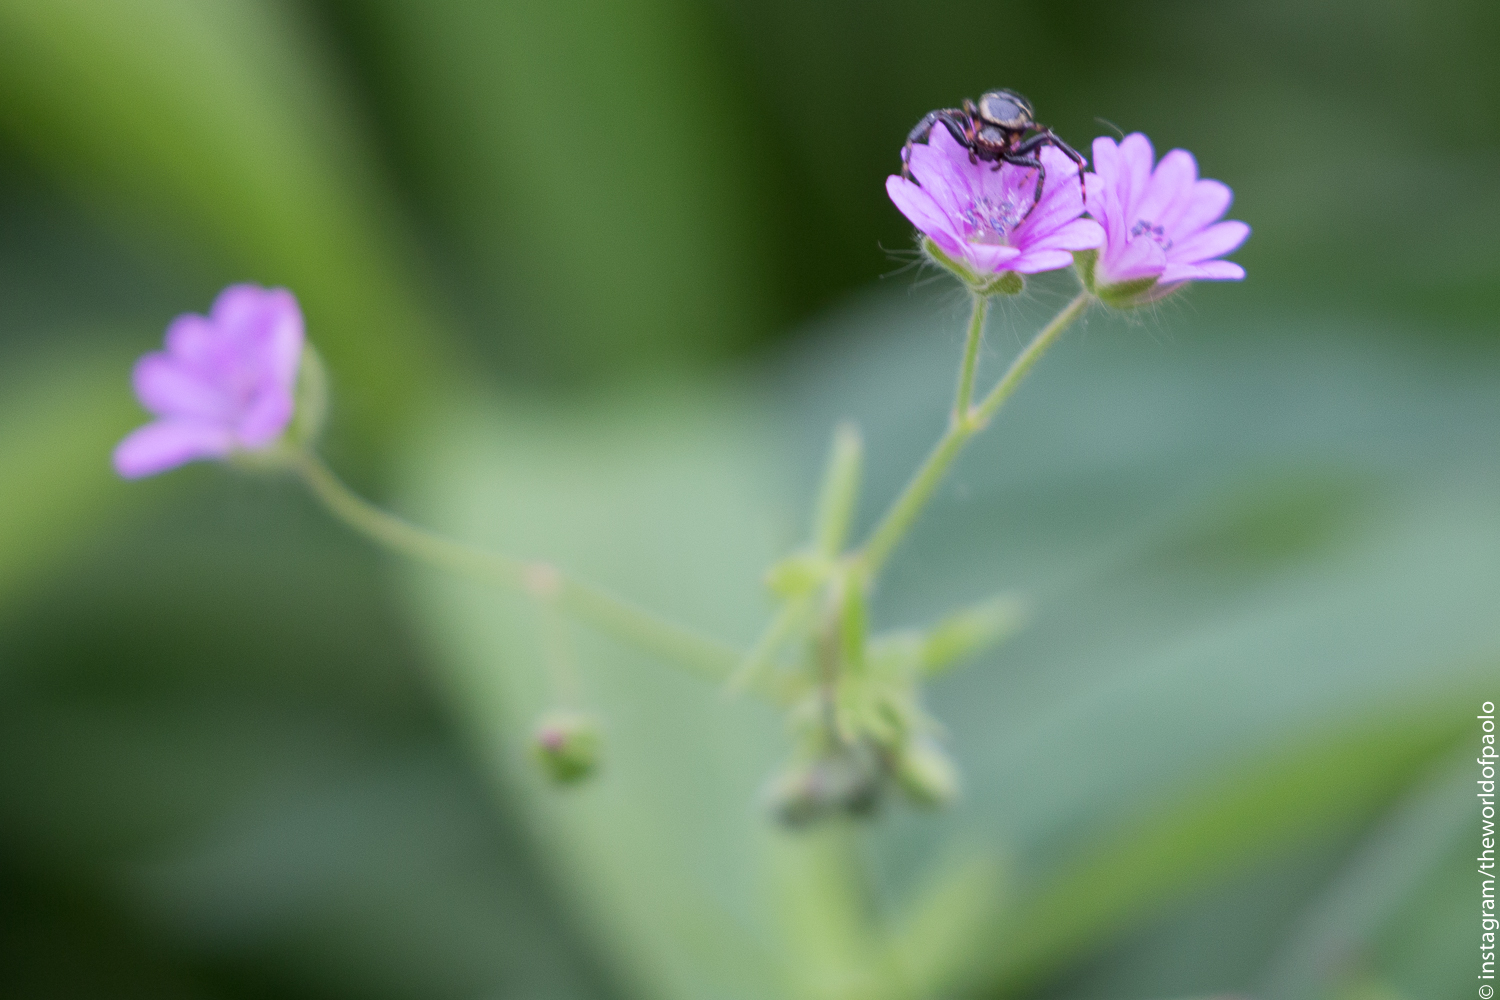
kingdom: Animalia
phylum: Arthropoda
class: Arachnida
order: Araneae
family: Thomisidae
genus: Synema
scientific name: Synema globosum
